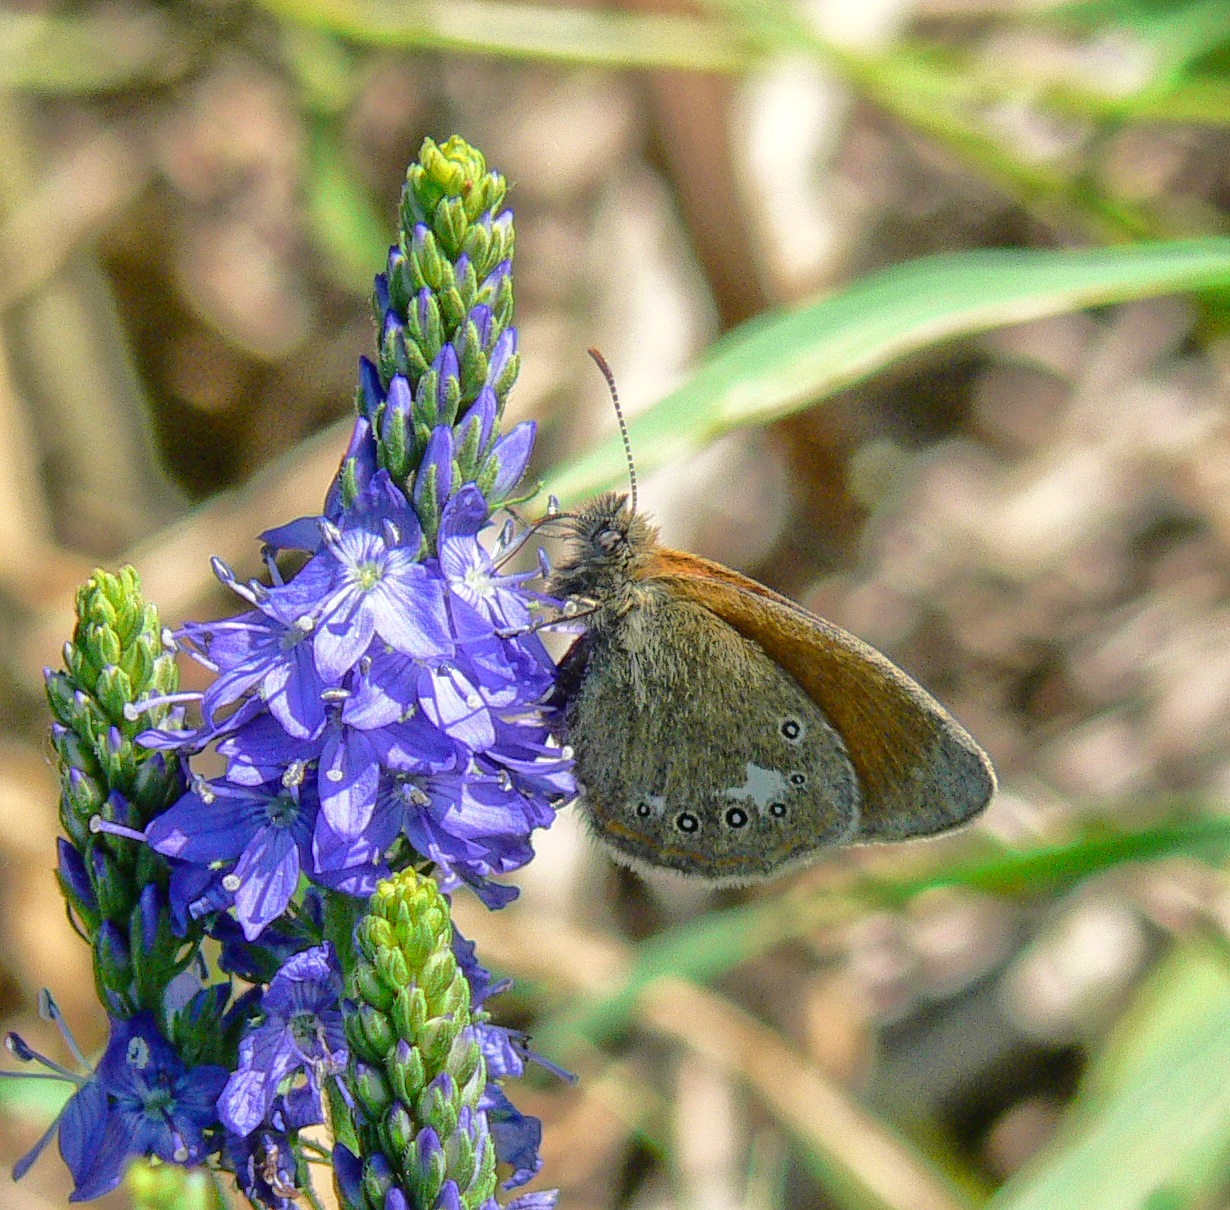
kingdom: Animalia
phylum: Arthropoda
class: Insecta
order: Lepidoptera
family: Nymphalidae
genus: Coenonympha
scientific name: Coenonympha iphis
